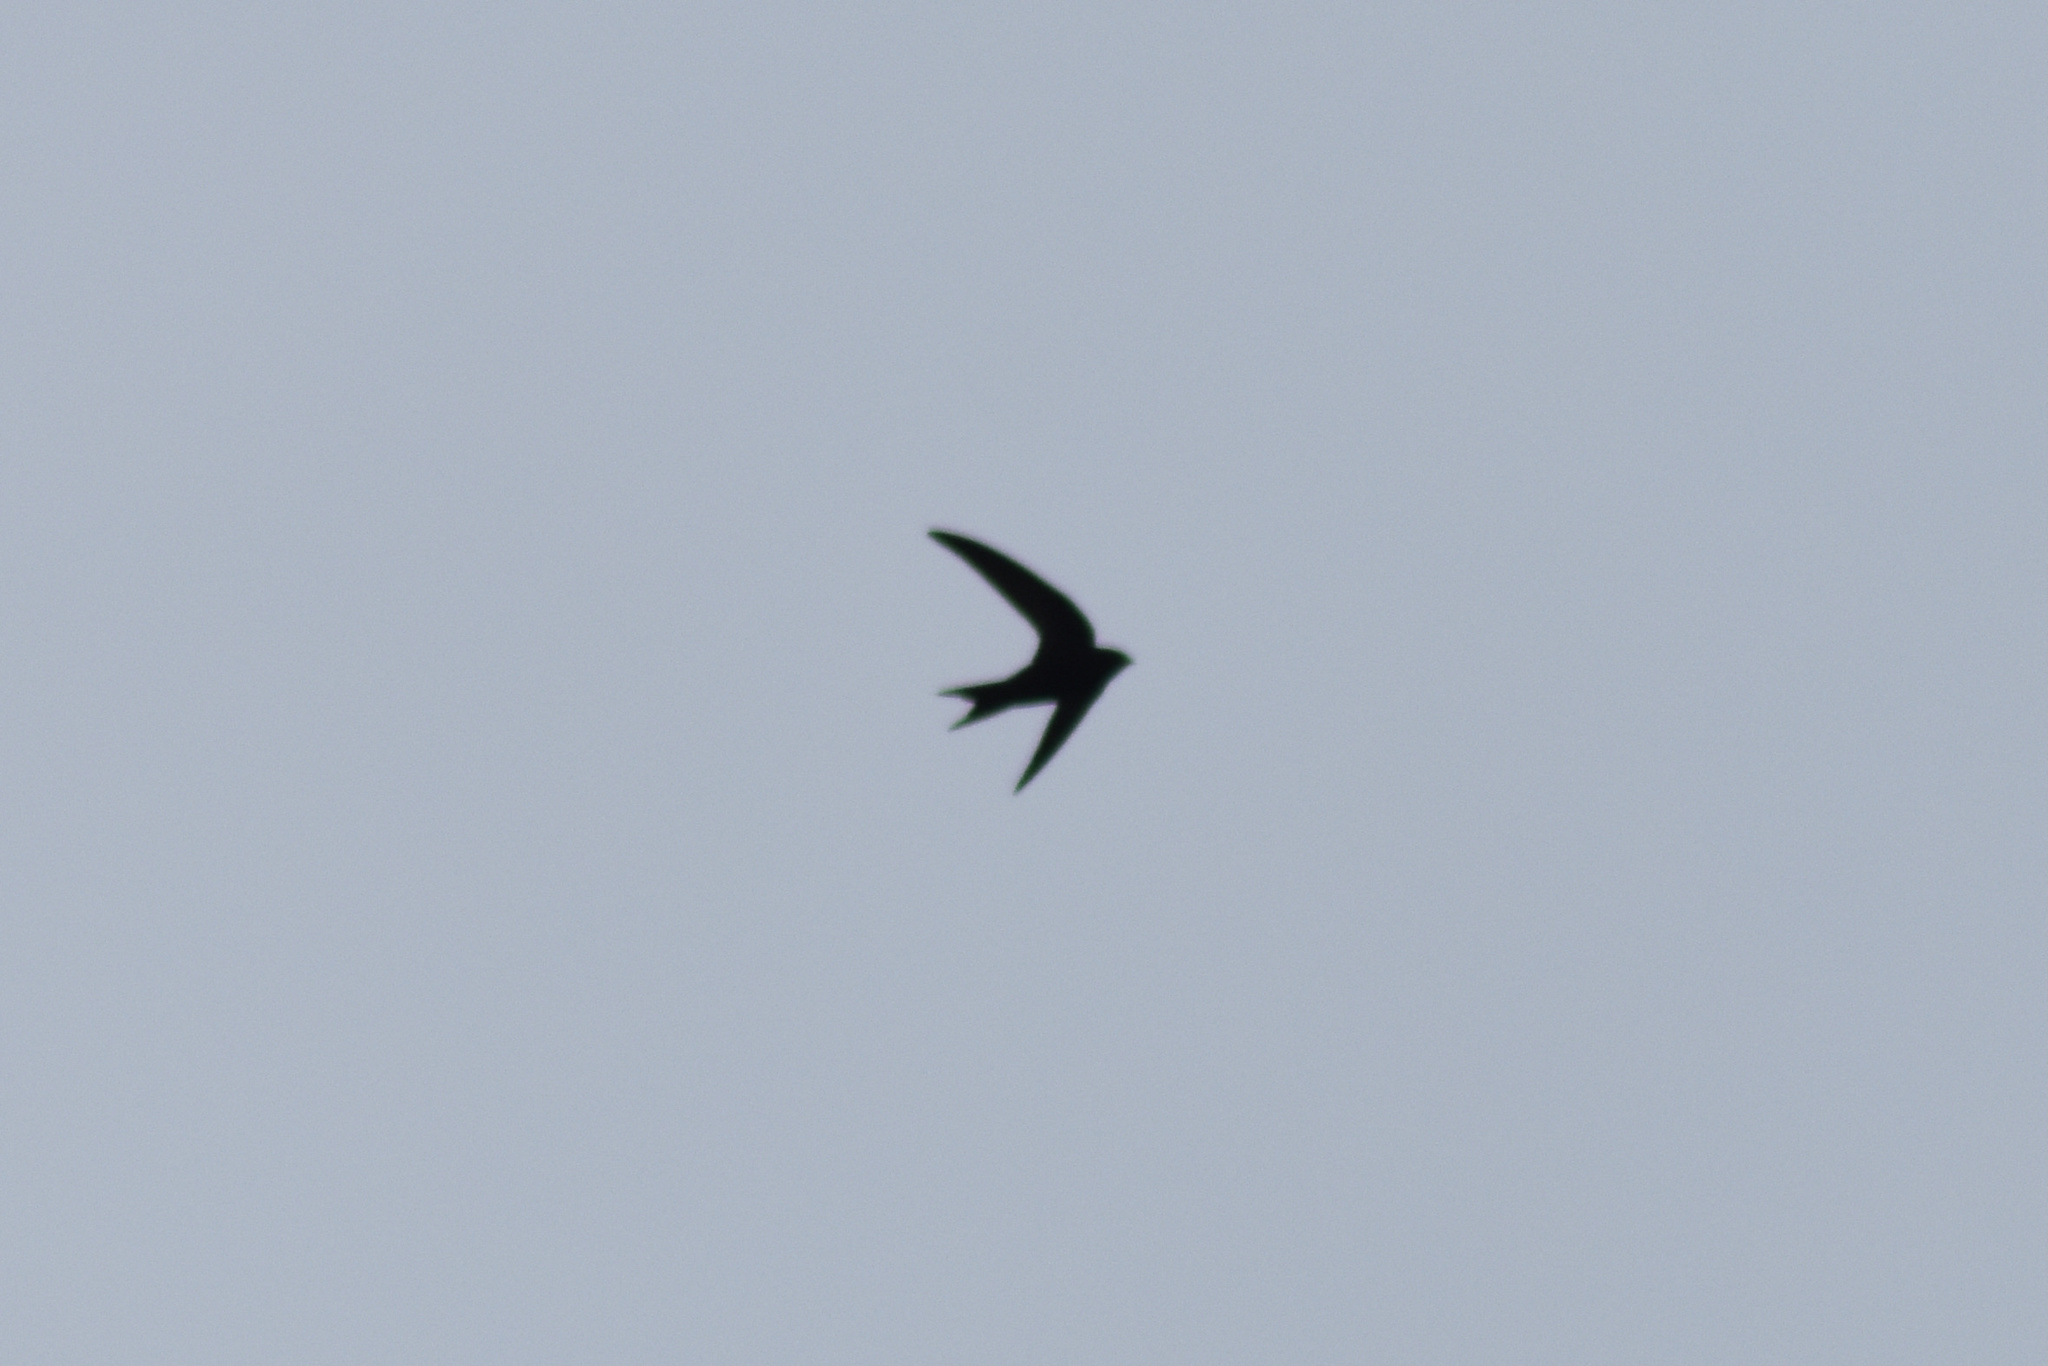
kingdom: Animalia
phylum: Chordata
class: Aves
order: Apodiformes
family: Apodidae
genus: Apus
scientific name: Apus apus
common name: Common swift
